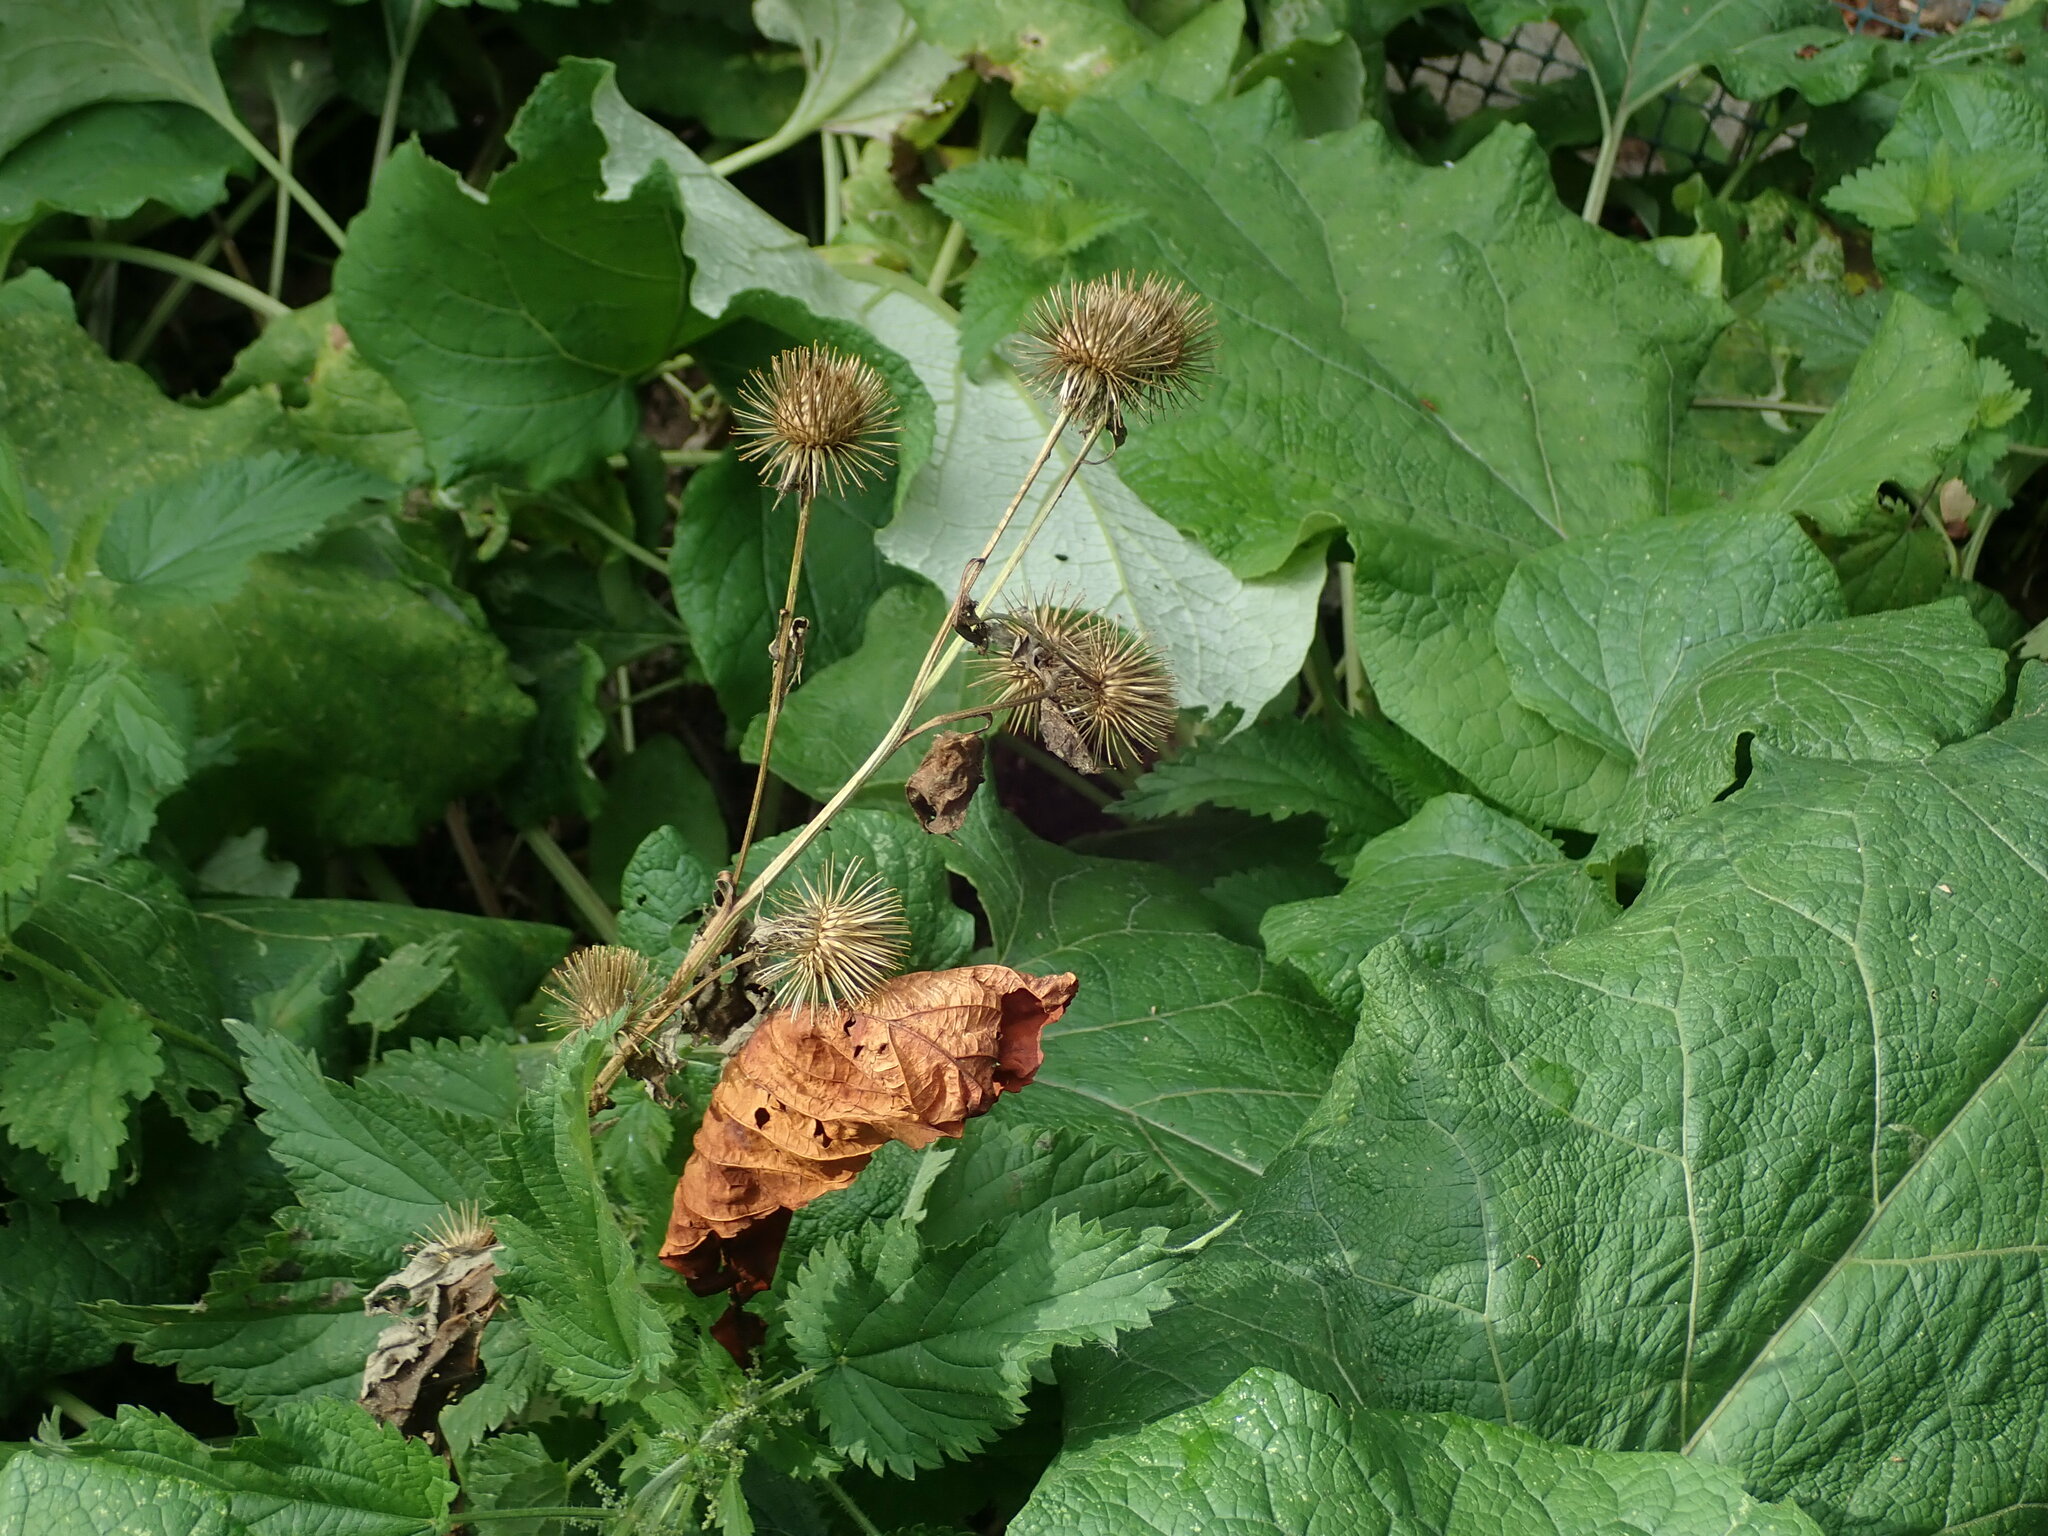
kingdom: Plantae
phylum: Tracheophyta
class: Magnoliopsida
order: Asterales
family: Asteraceae
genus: Arctium
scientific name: Arctium lappa
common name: Greater burdock
